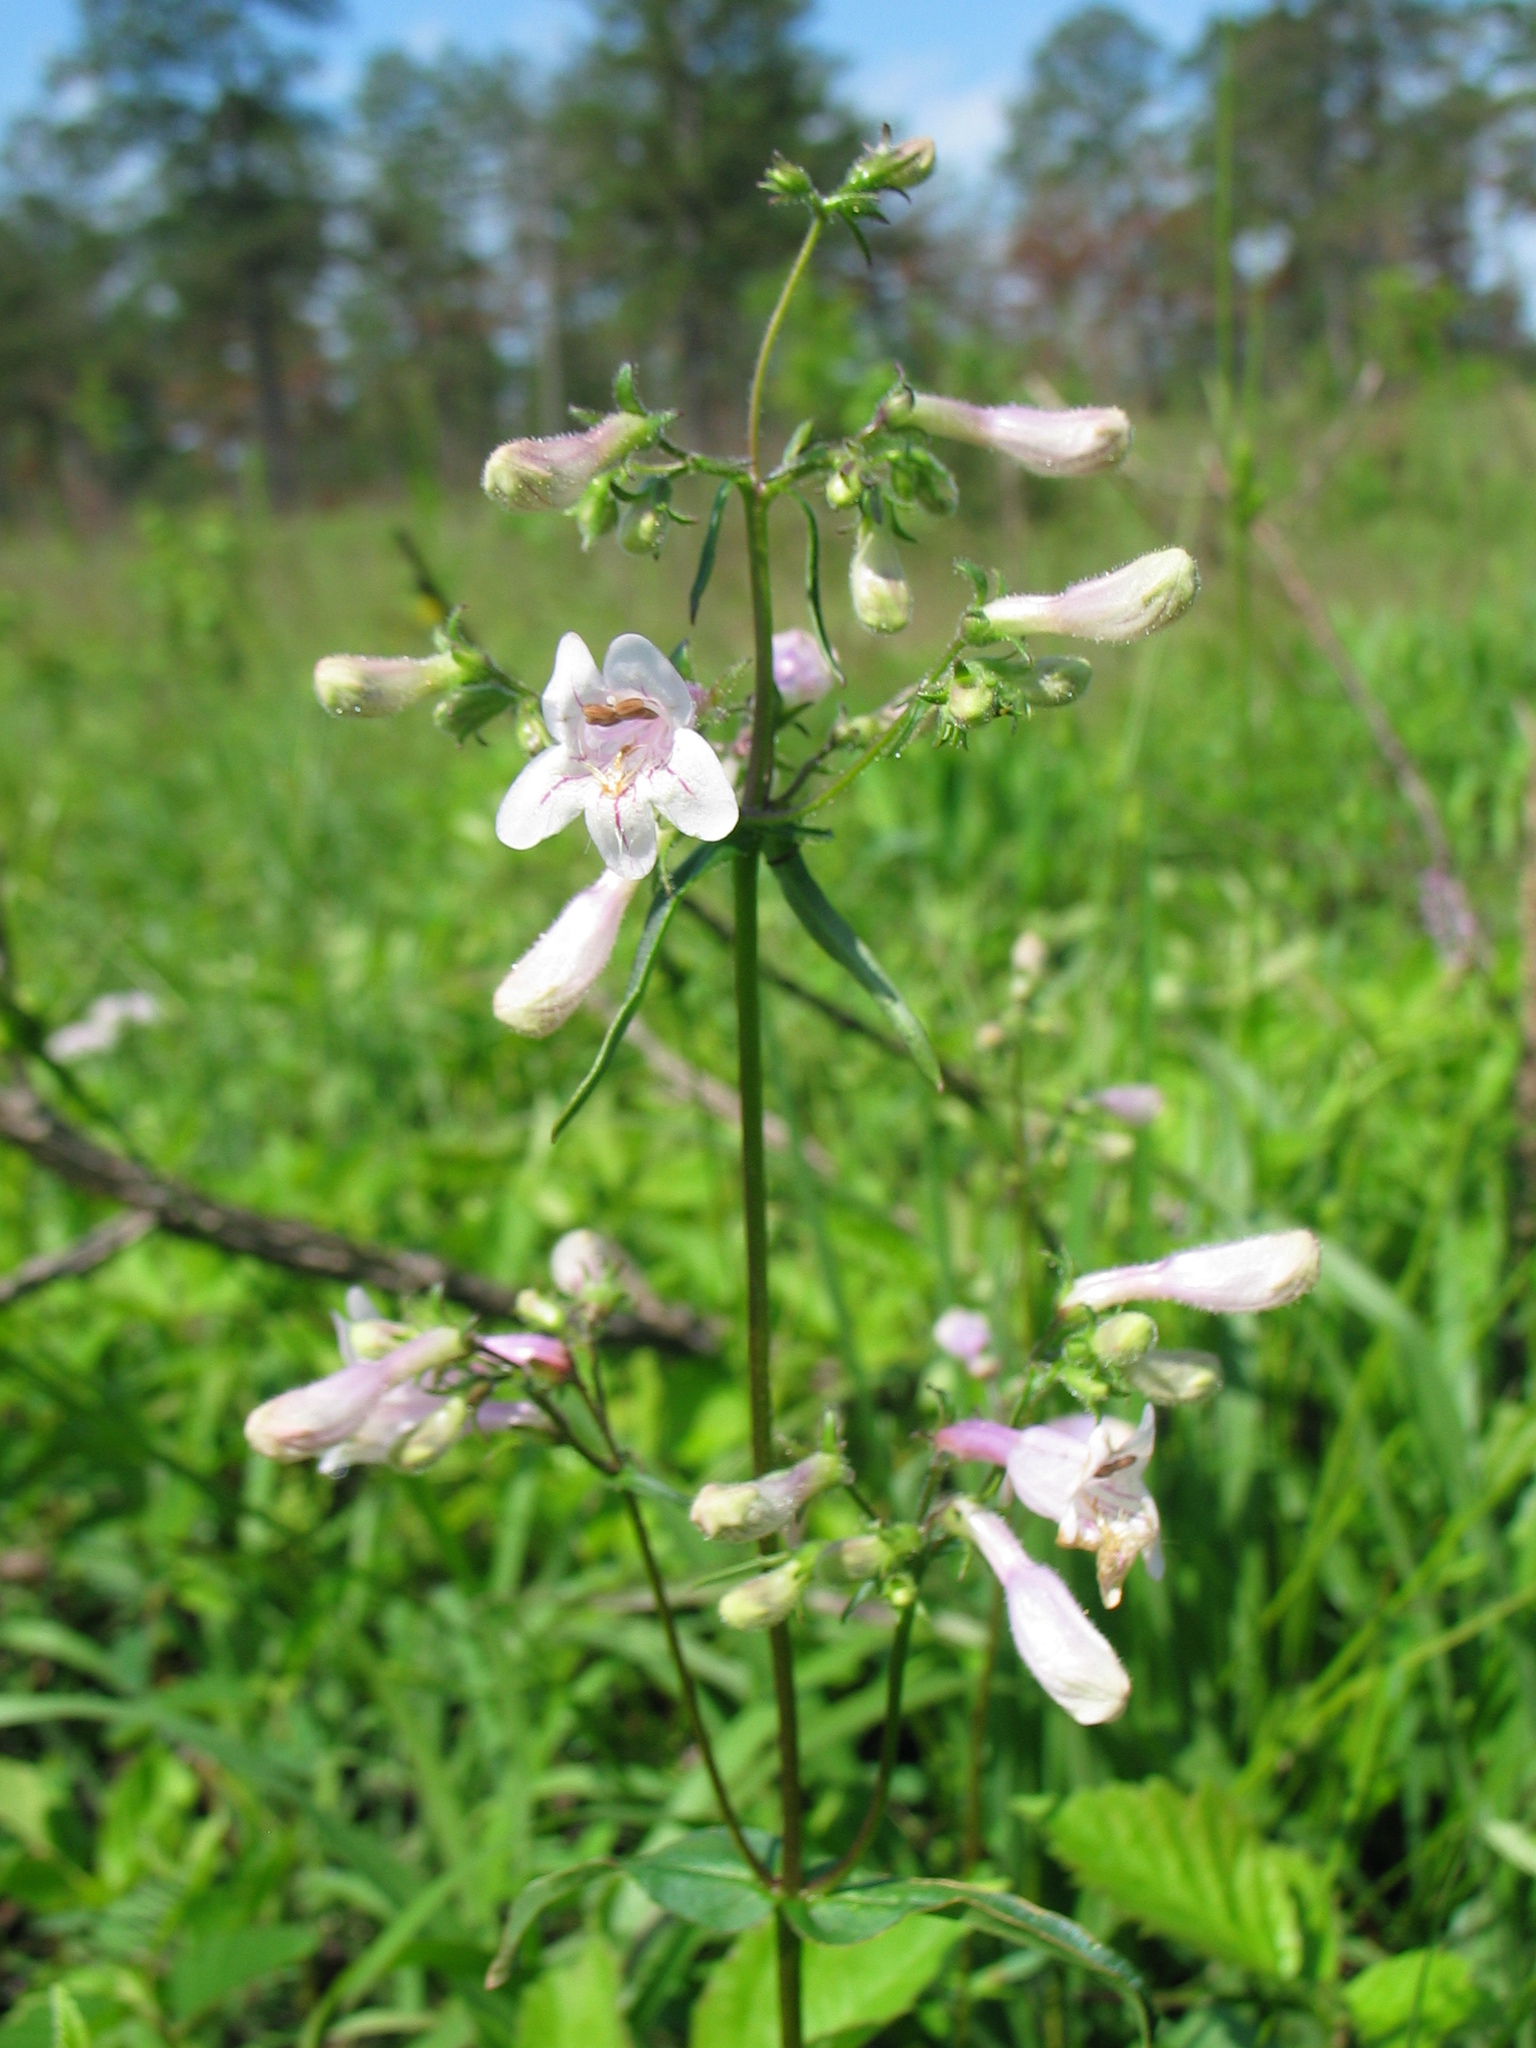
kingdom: Plantae
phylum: Tracheophyta
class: Magnoliopsida
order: Lamiales
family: Plantaginaceae
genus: Penstemon
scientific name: Penstemon laevigatus
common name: Eastern beardtongue
